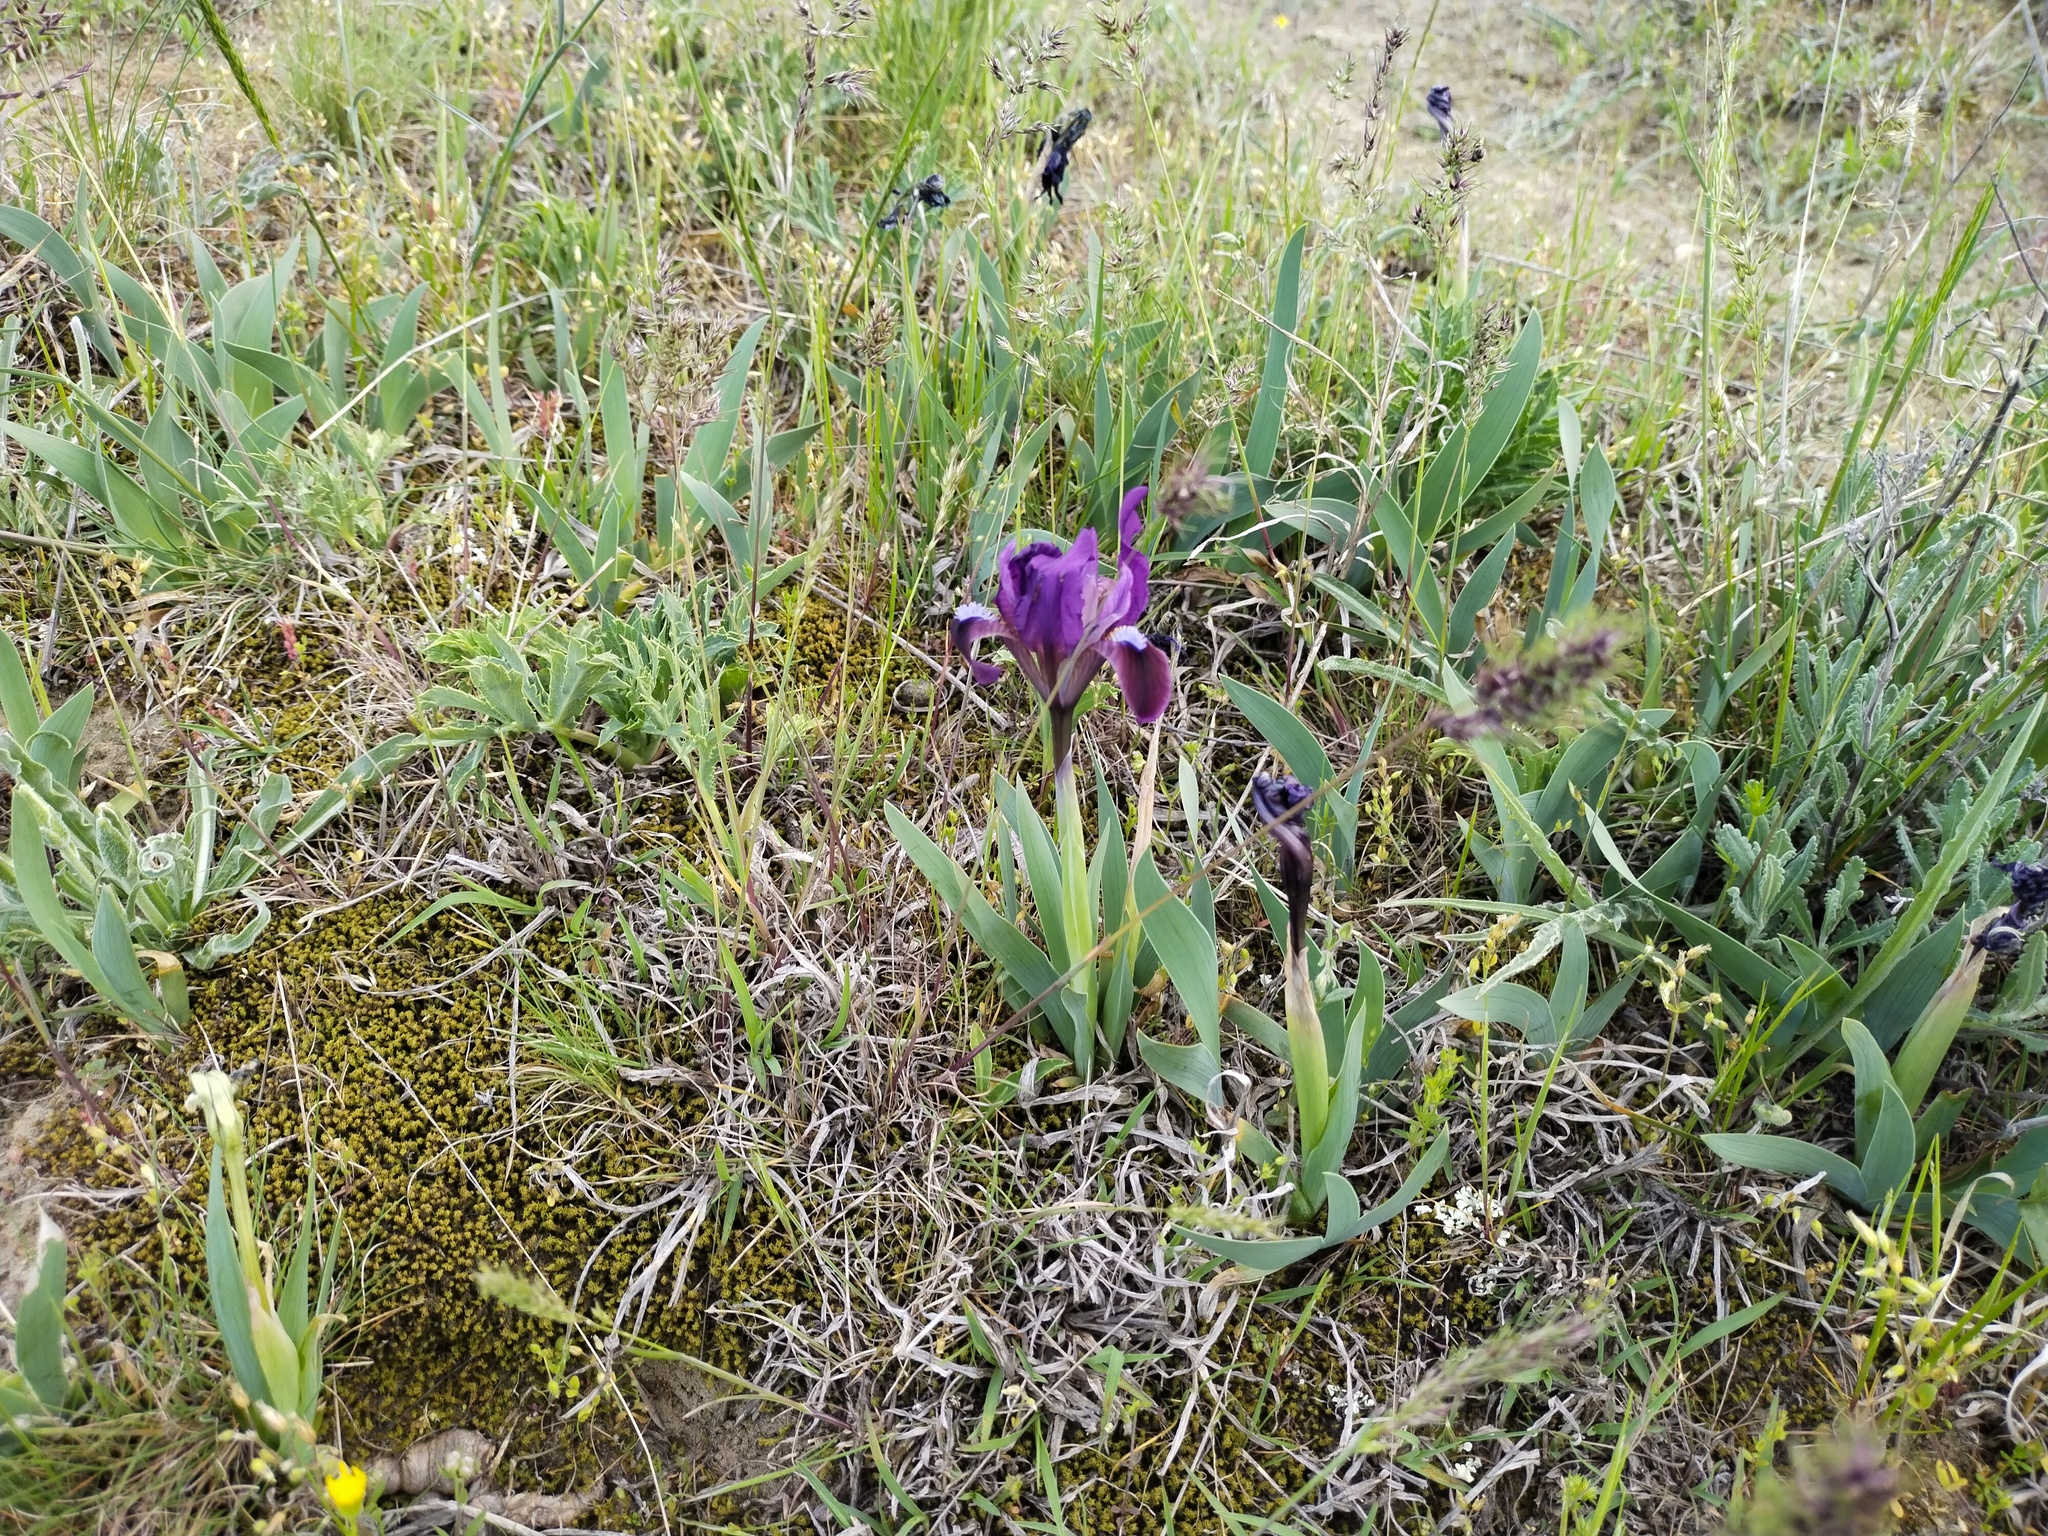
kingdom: Plantae
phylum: Tracheophyta
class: Liliopsida
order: Asparagales
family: Iridaceae
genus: Iris
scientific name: Iris pumila
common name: Dwarf iris
